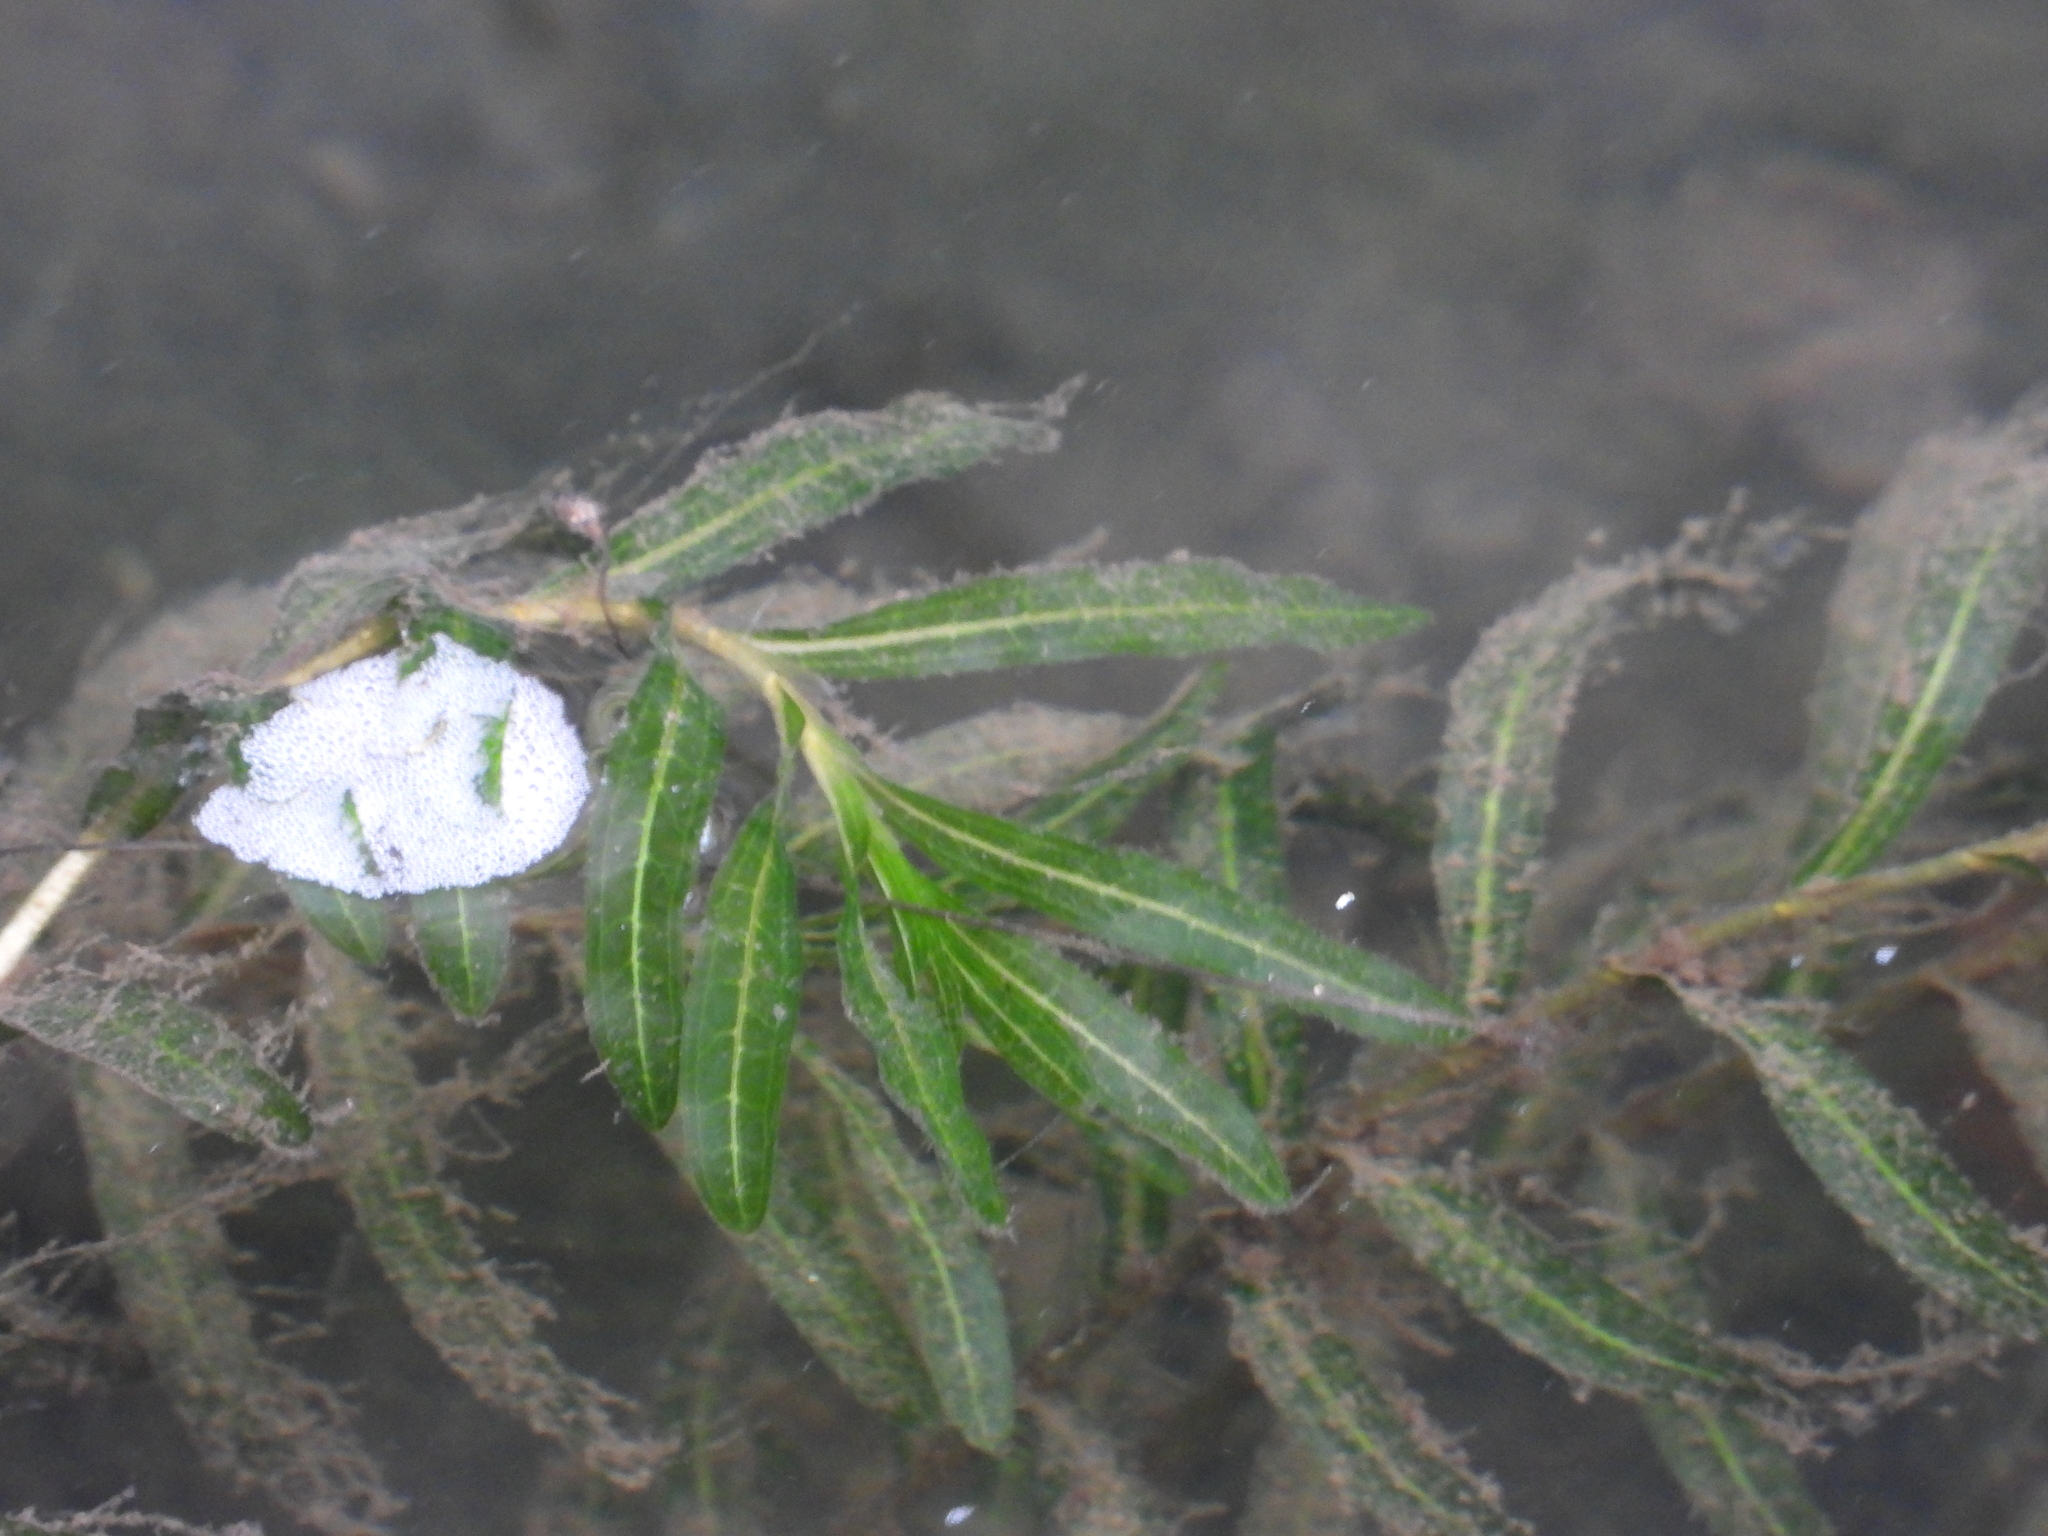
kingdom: Plantae
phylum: Tracheophyta
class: Liliopsida
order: Alismatales
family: Potamogetonaceae
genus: Potamogeton
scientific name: Potamogeton crispus
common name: Curled pondweed
